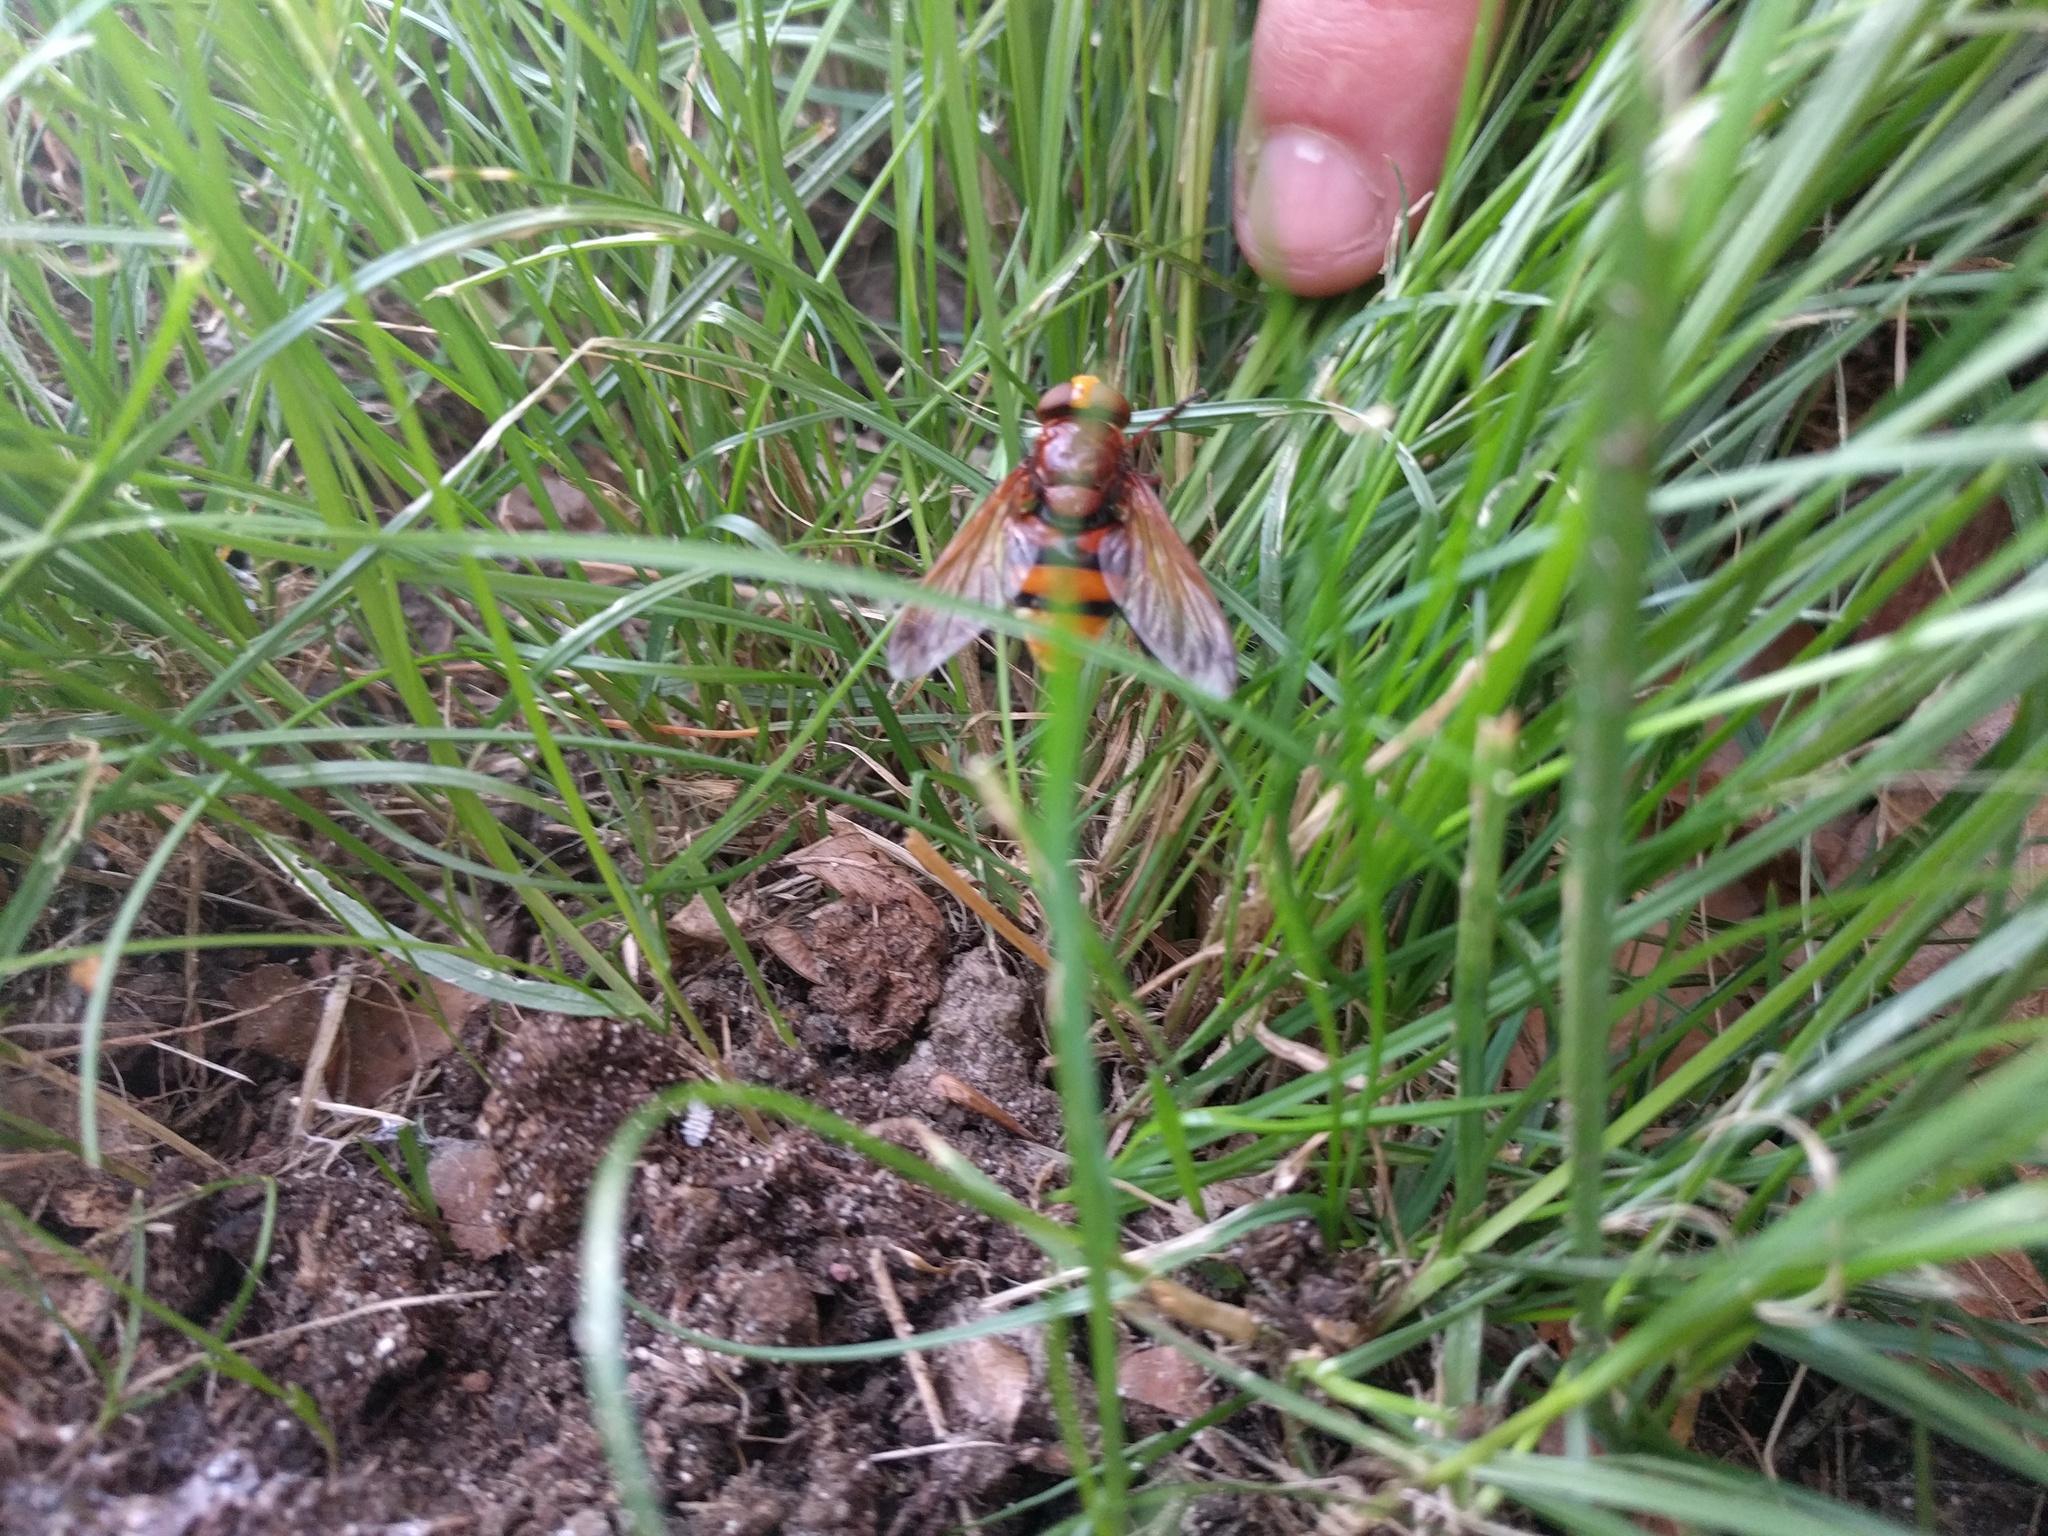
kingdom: Animalia
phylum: Arthropoda
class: Insecta
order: Diptera
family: Syrphidae
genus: Volucella
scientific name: Volucella zonaria
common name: Hornet hoverfly
